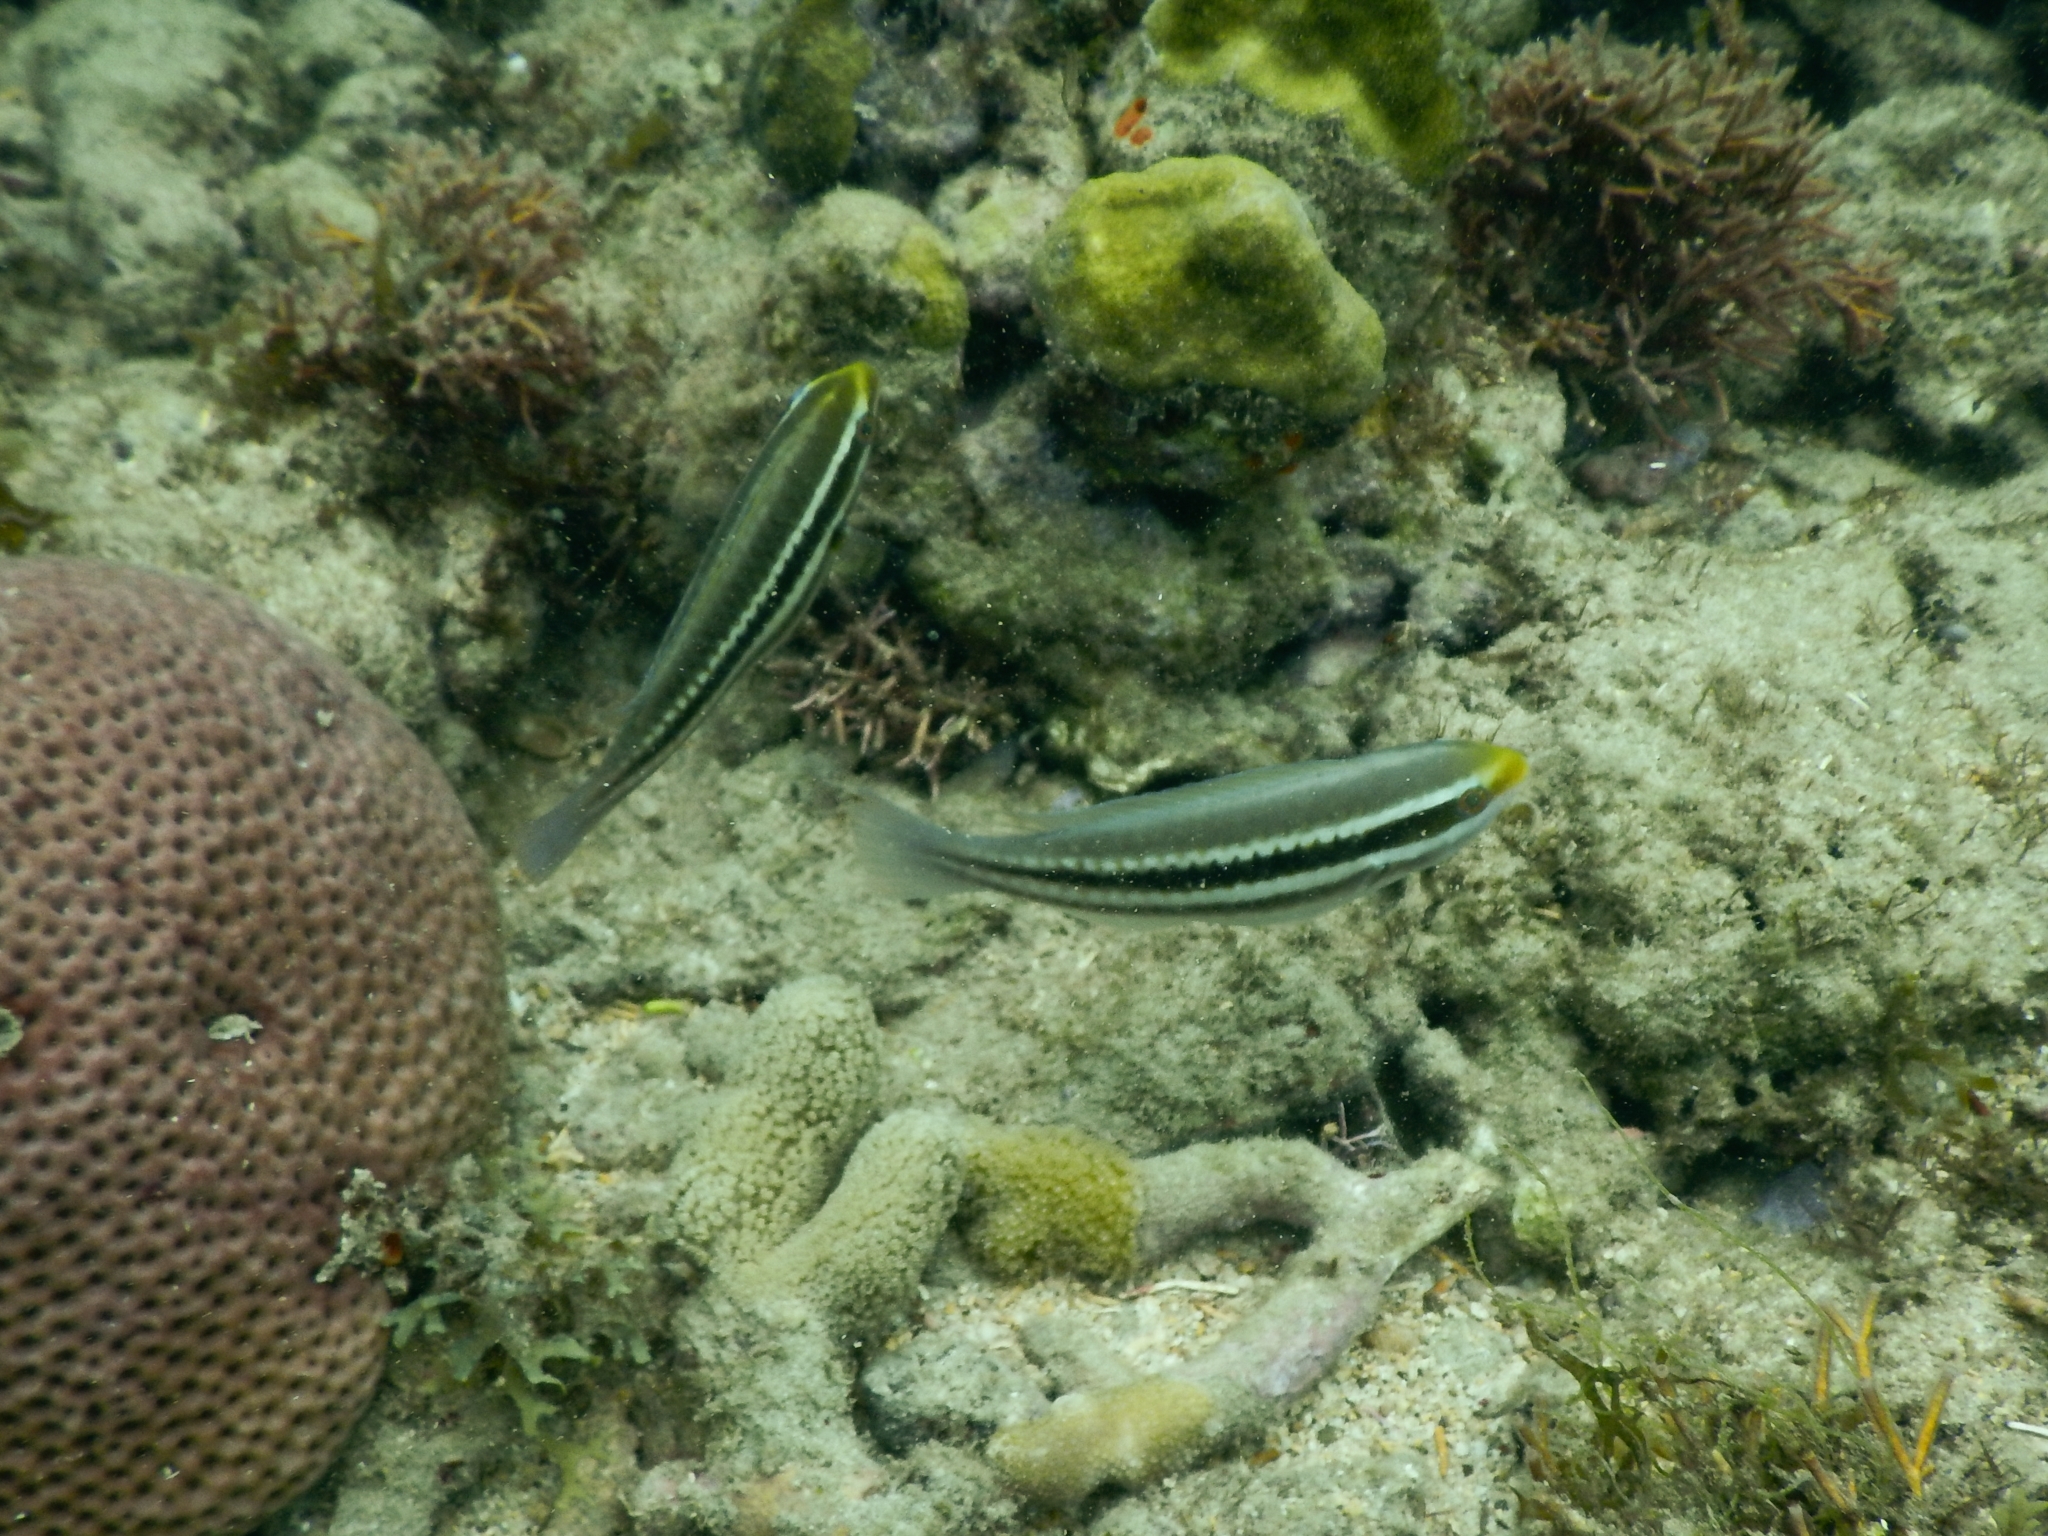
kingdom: Animalia
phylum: Chordata
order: Perciformes
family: Scaridae
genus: Scarus
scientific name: Scarus iseri
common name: Striped parrotfish
